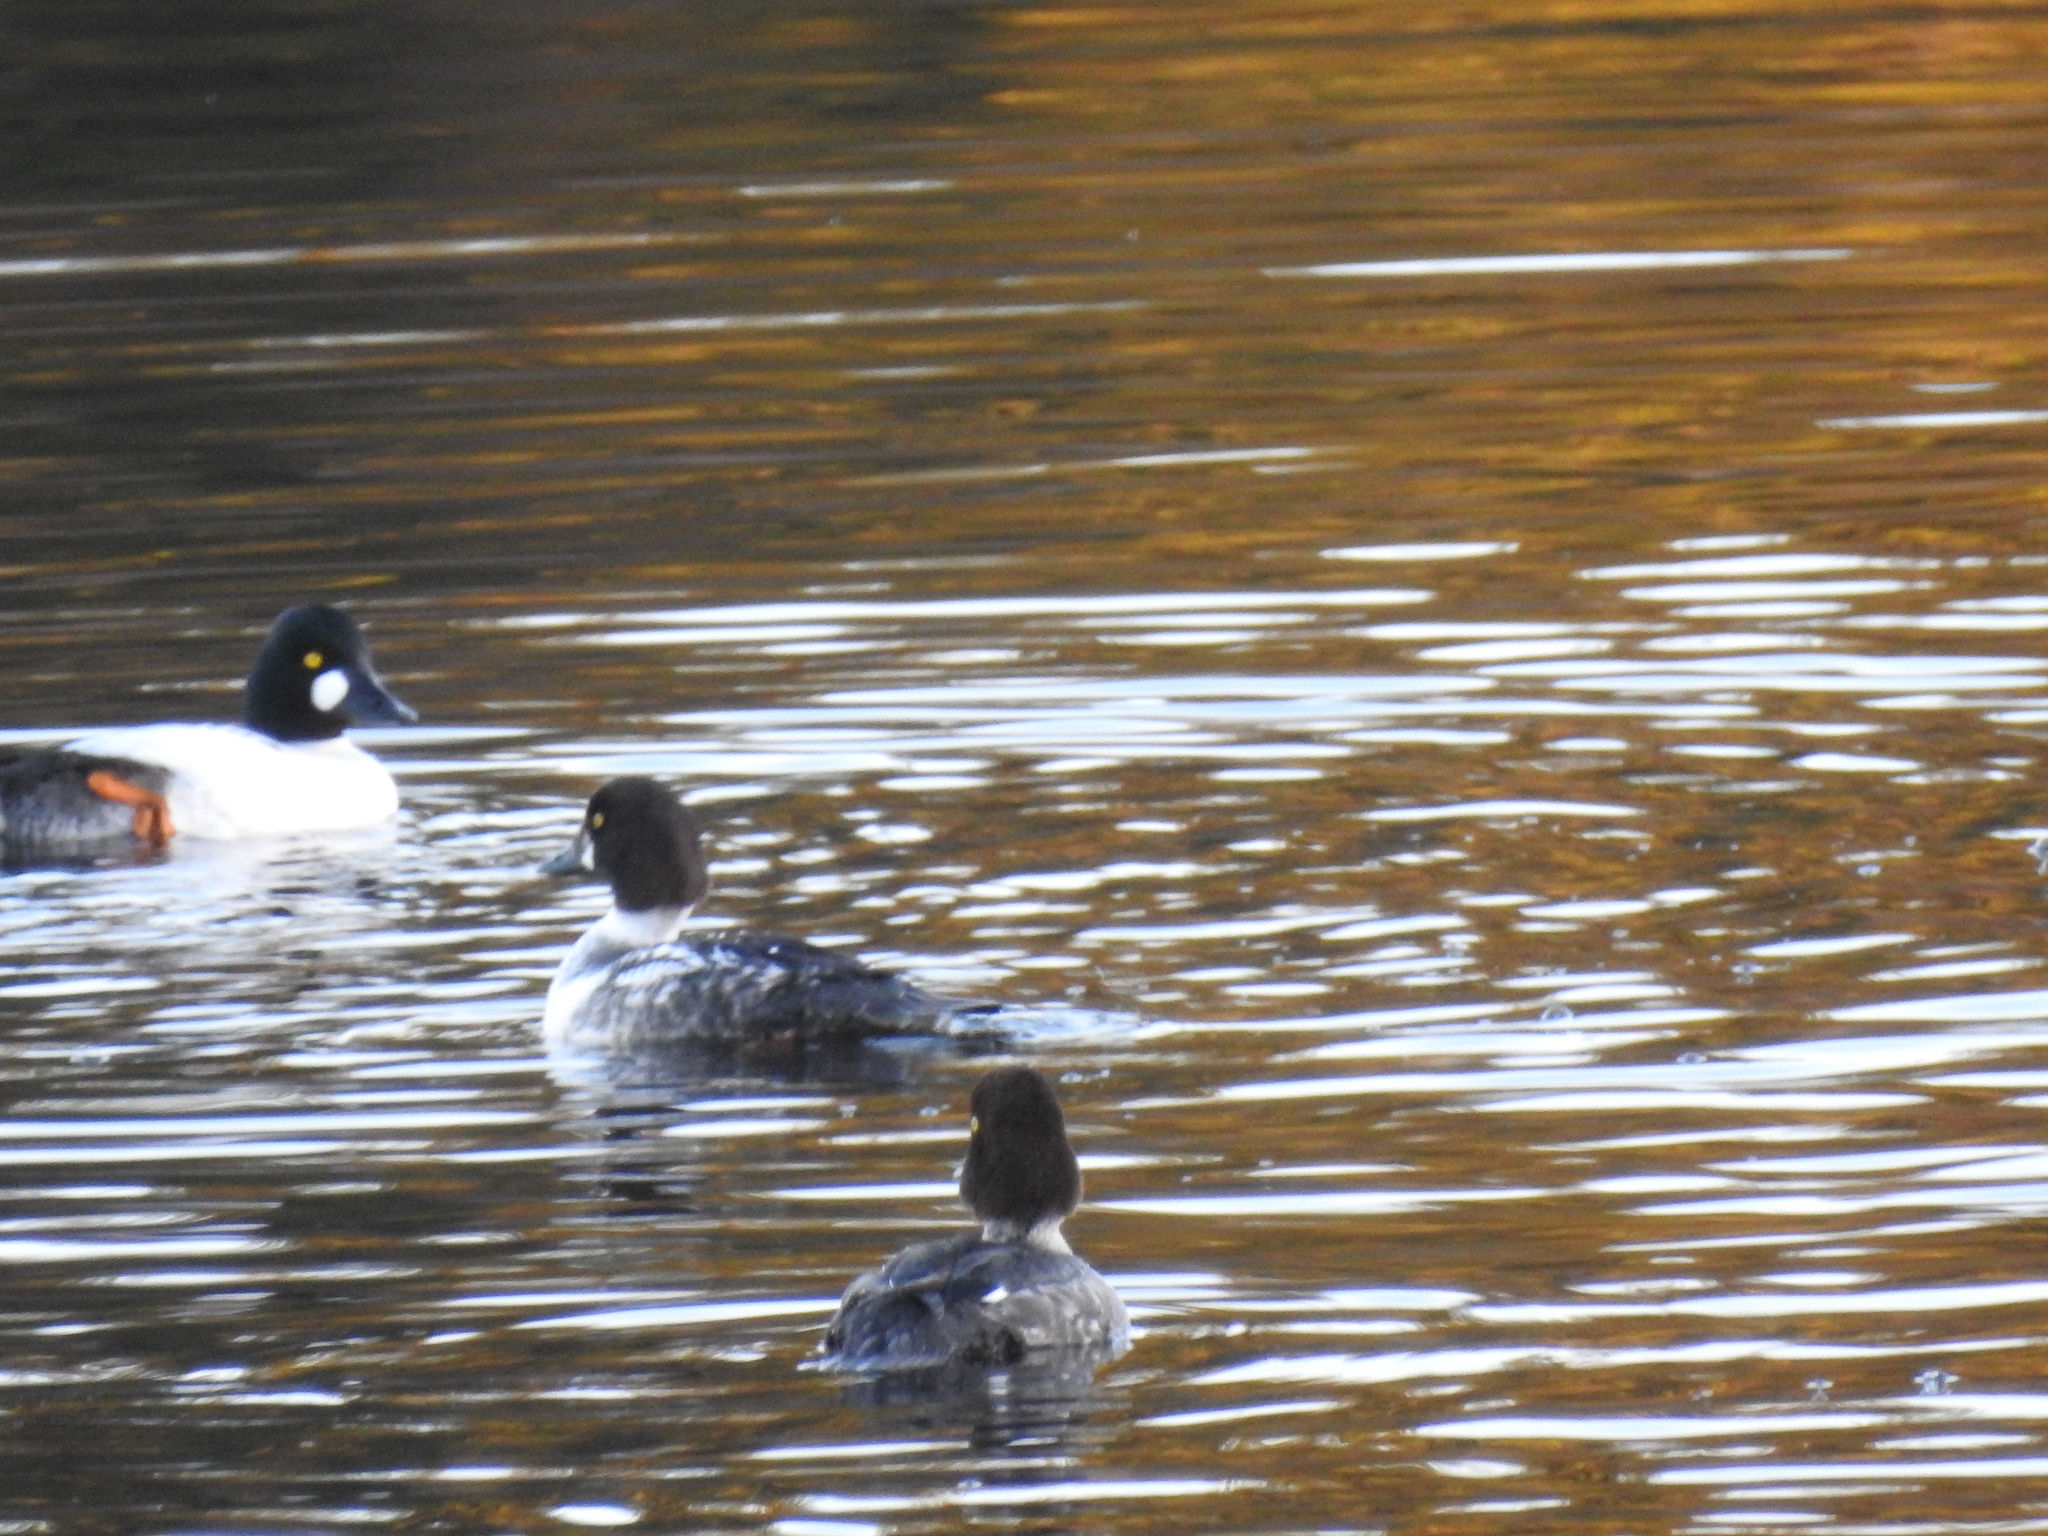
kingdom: Animalia
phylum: Chordata
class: Aves
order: Anseriformes
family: Anatidae
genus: Bucephala
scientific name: Bucephala clangula
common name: Common goldeneye
